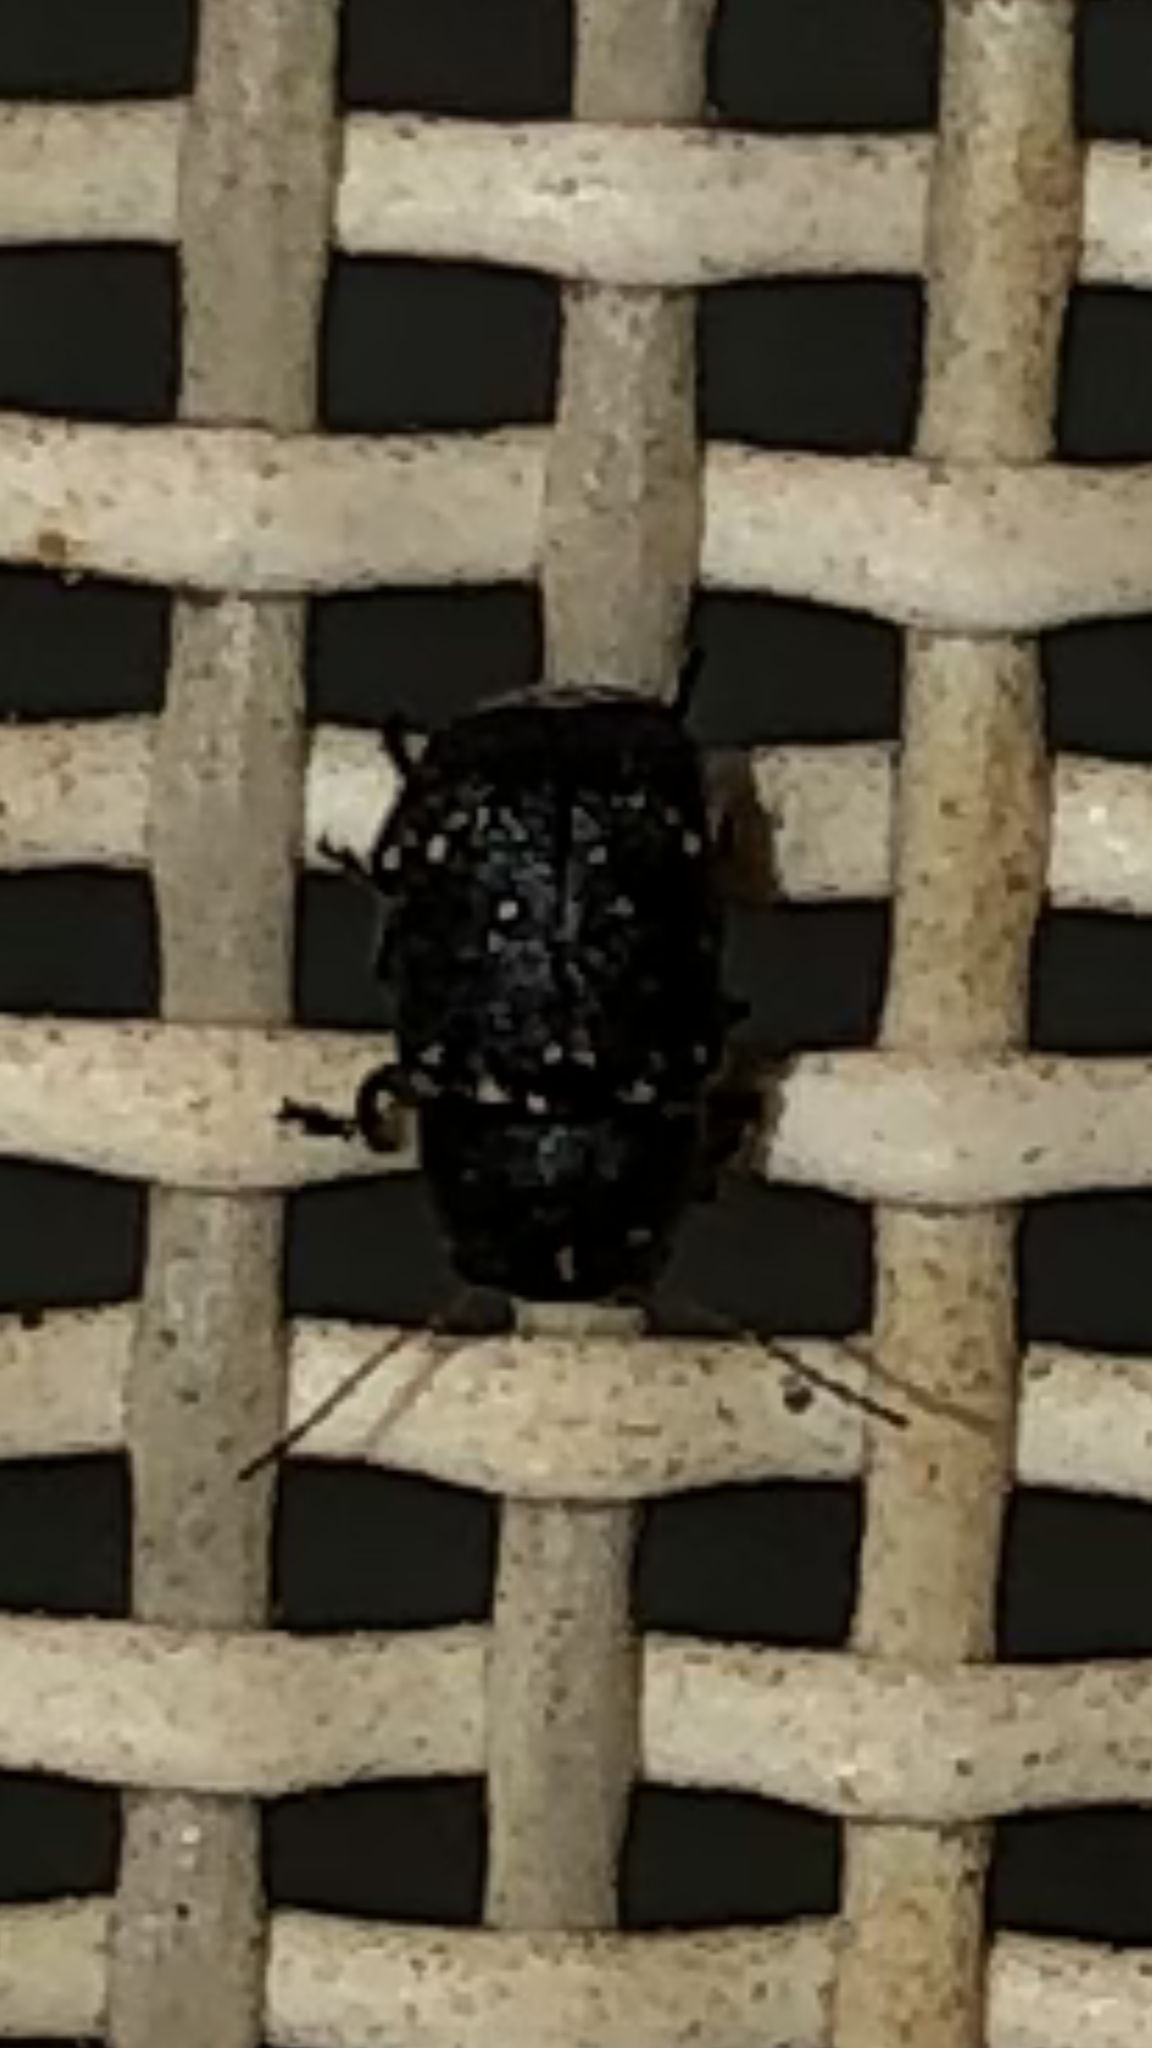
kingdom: Animalia
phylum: Arthropoda
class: Insecta
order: Coleoptera
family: Chrysomelidae
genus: Pachybrachis
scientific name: Pachybrachis stygicus
